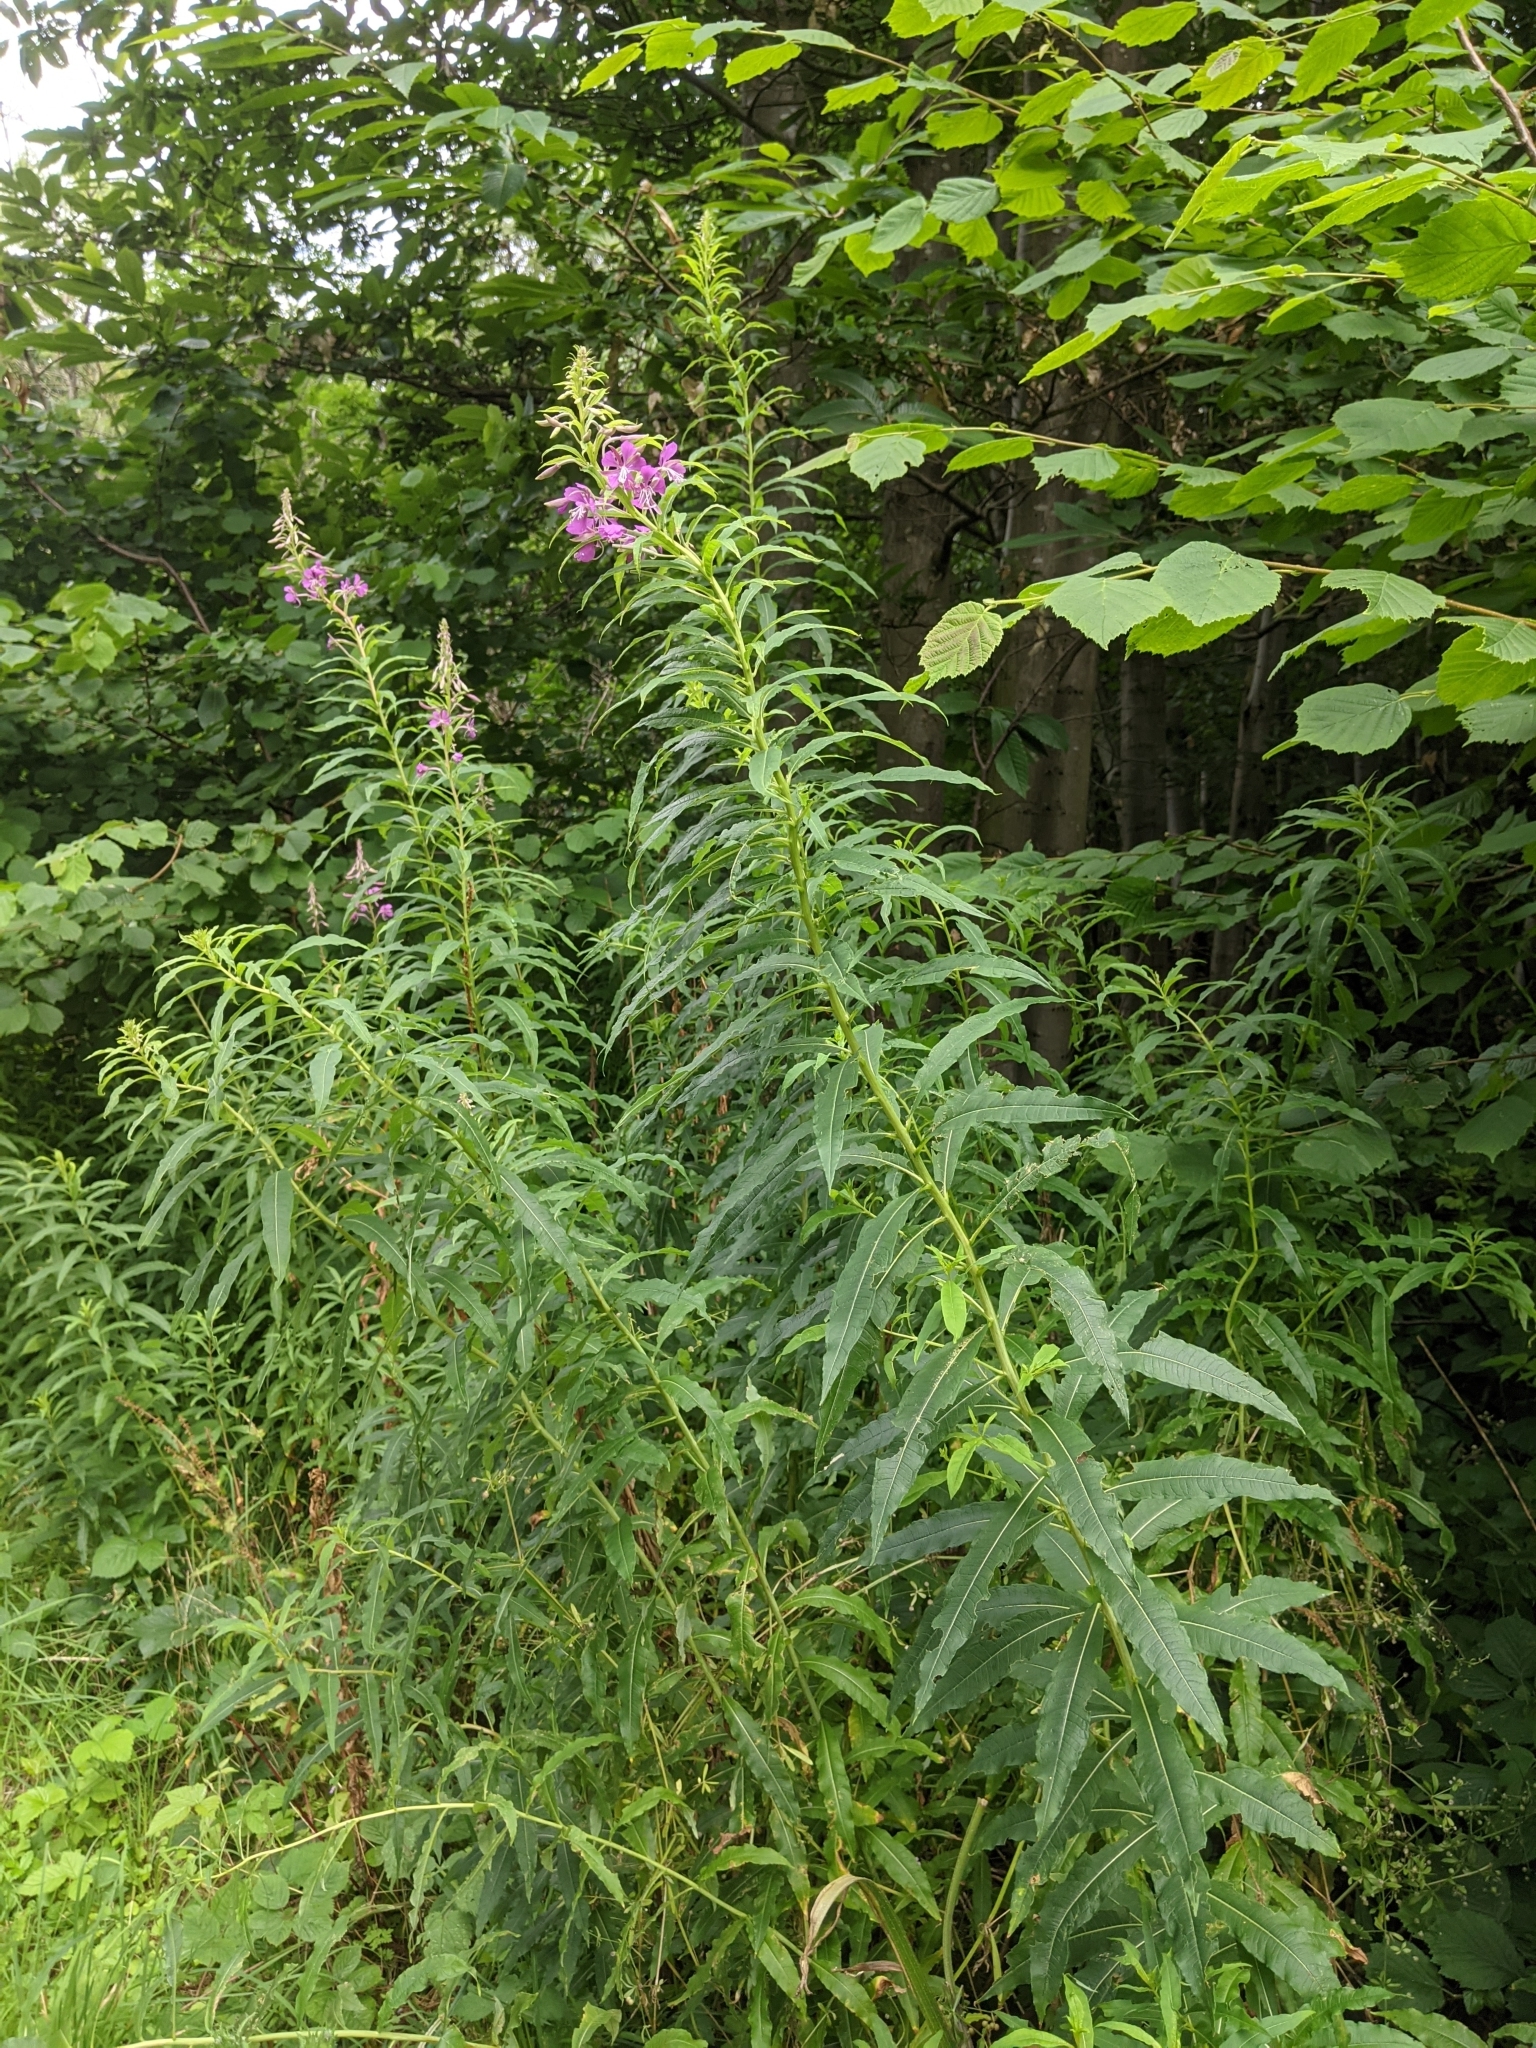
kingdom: Plantae
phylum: Tracheophyta
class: Magnoliopsida
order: Myrtales
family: Onagraceae
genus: Chamaenerion
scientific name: Chamaenerion angustifolium
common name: Fireweed
